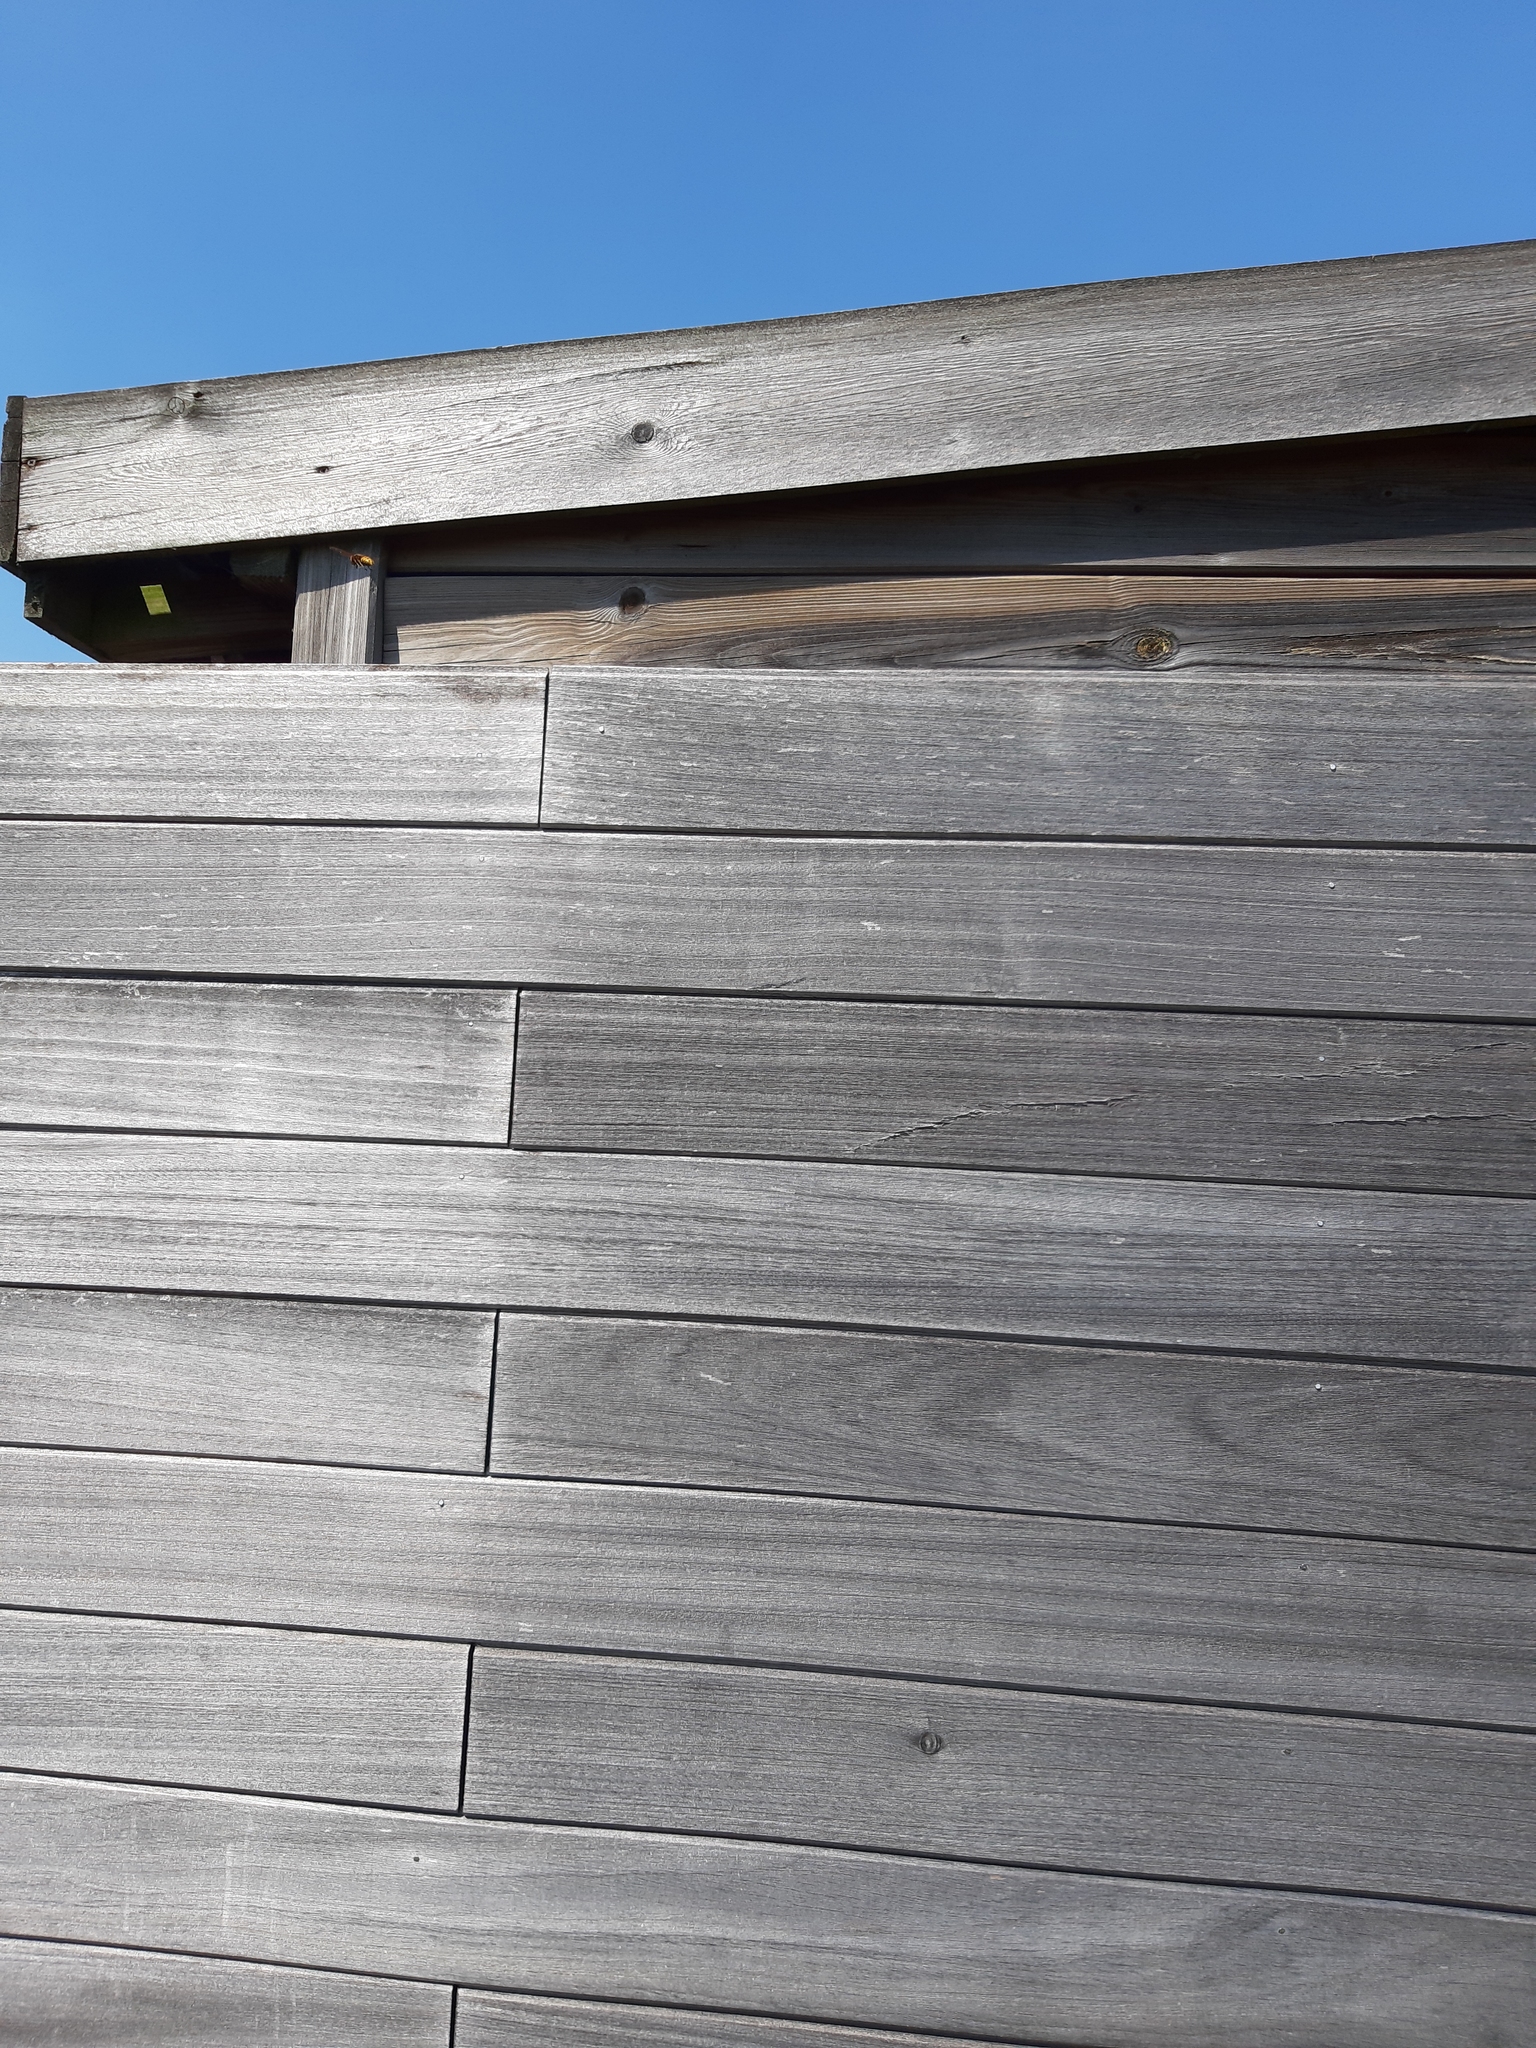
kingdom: Animalia
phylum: Arthropoda
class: Insecta
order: Hymenoptera
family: Vespidae
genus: Vespa
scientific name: Vespa crabro
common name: Hornet
